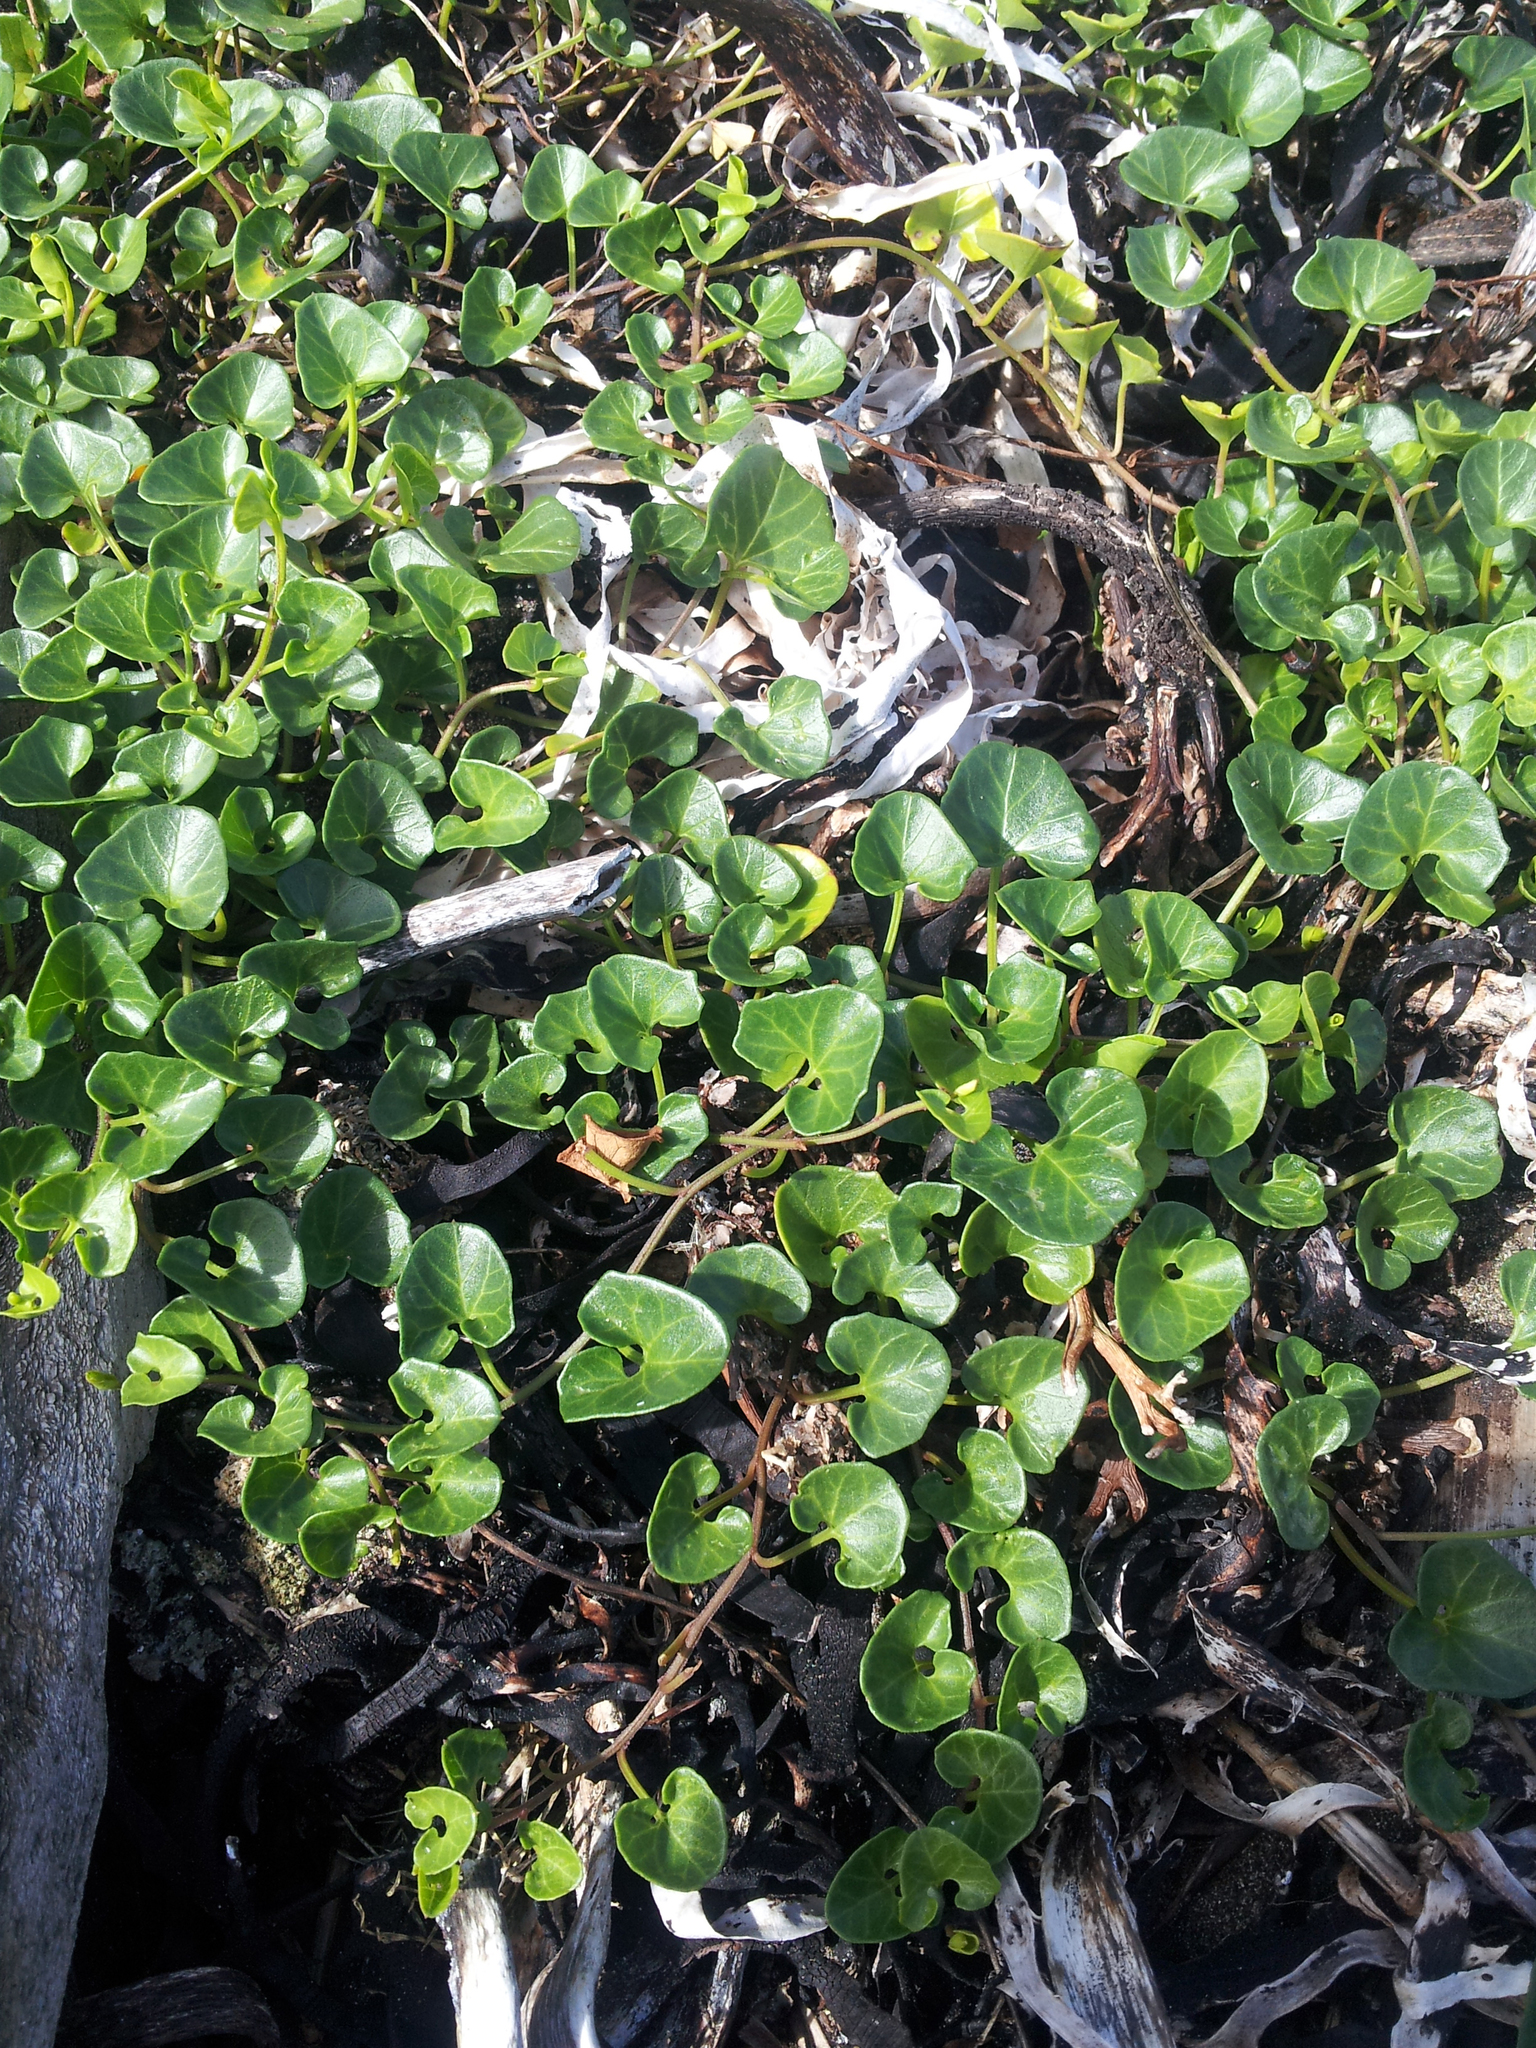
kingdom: Plantae
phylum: Tracheophyta
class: Magnoliopsida
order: Solanales
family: Convolvulaceae
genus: Calystegia
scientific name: Calystegia soldanella
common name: Sea bindweed
